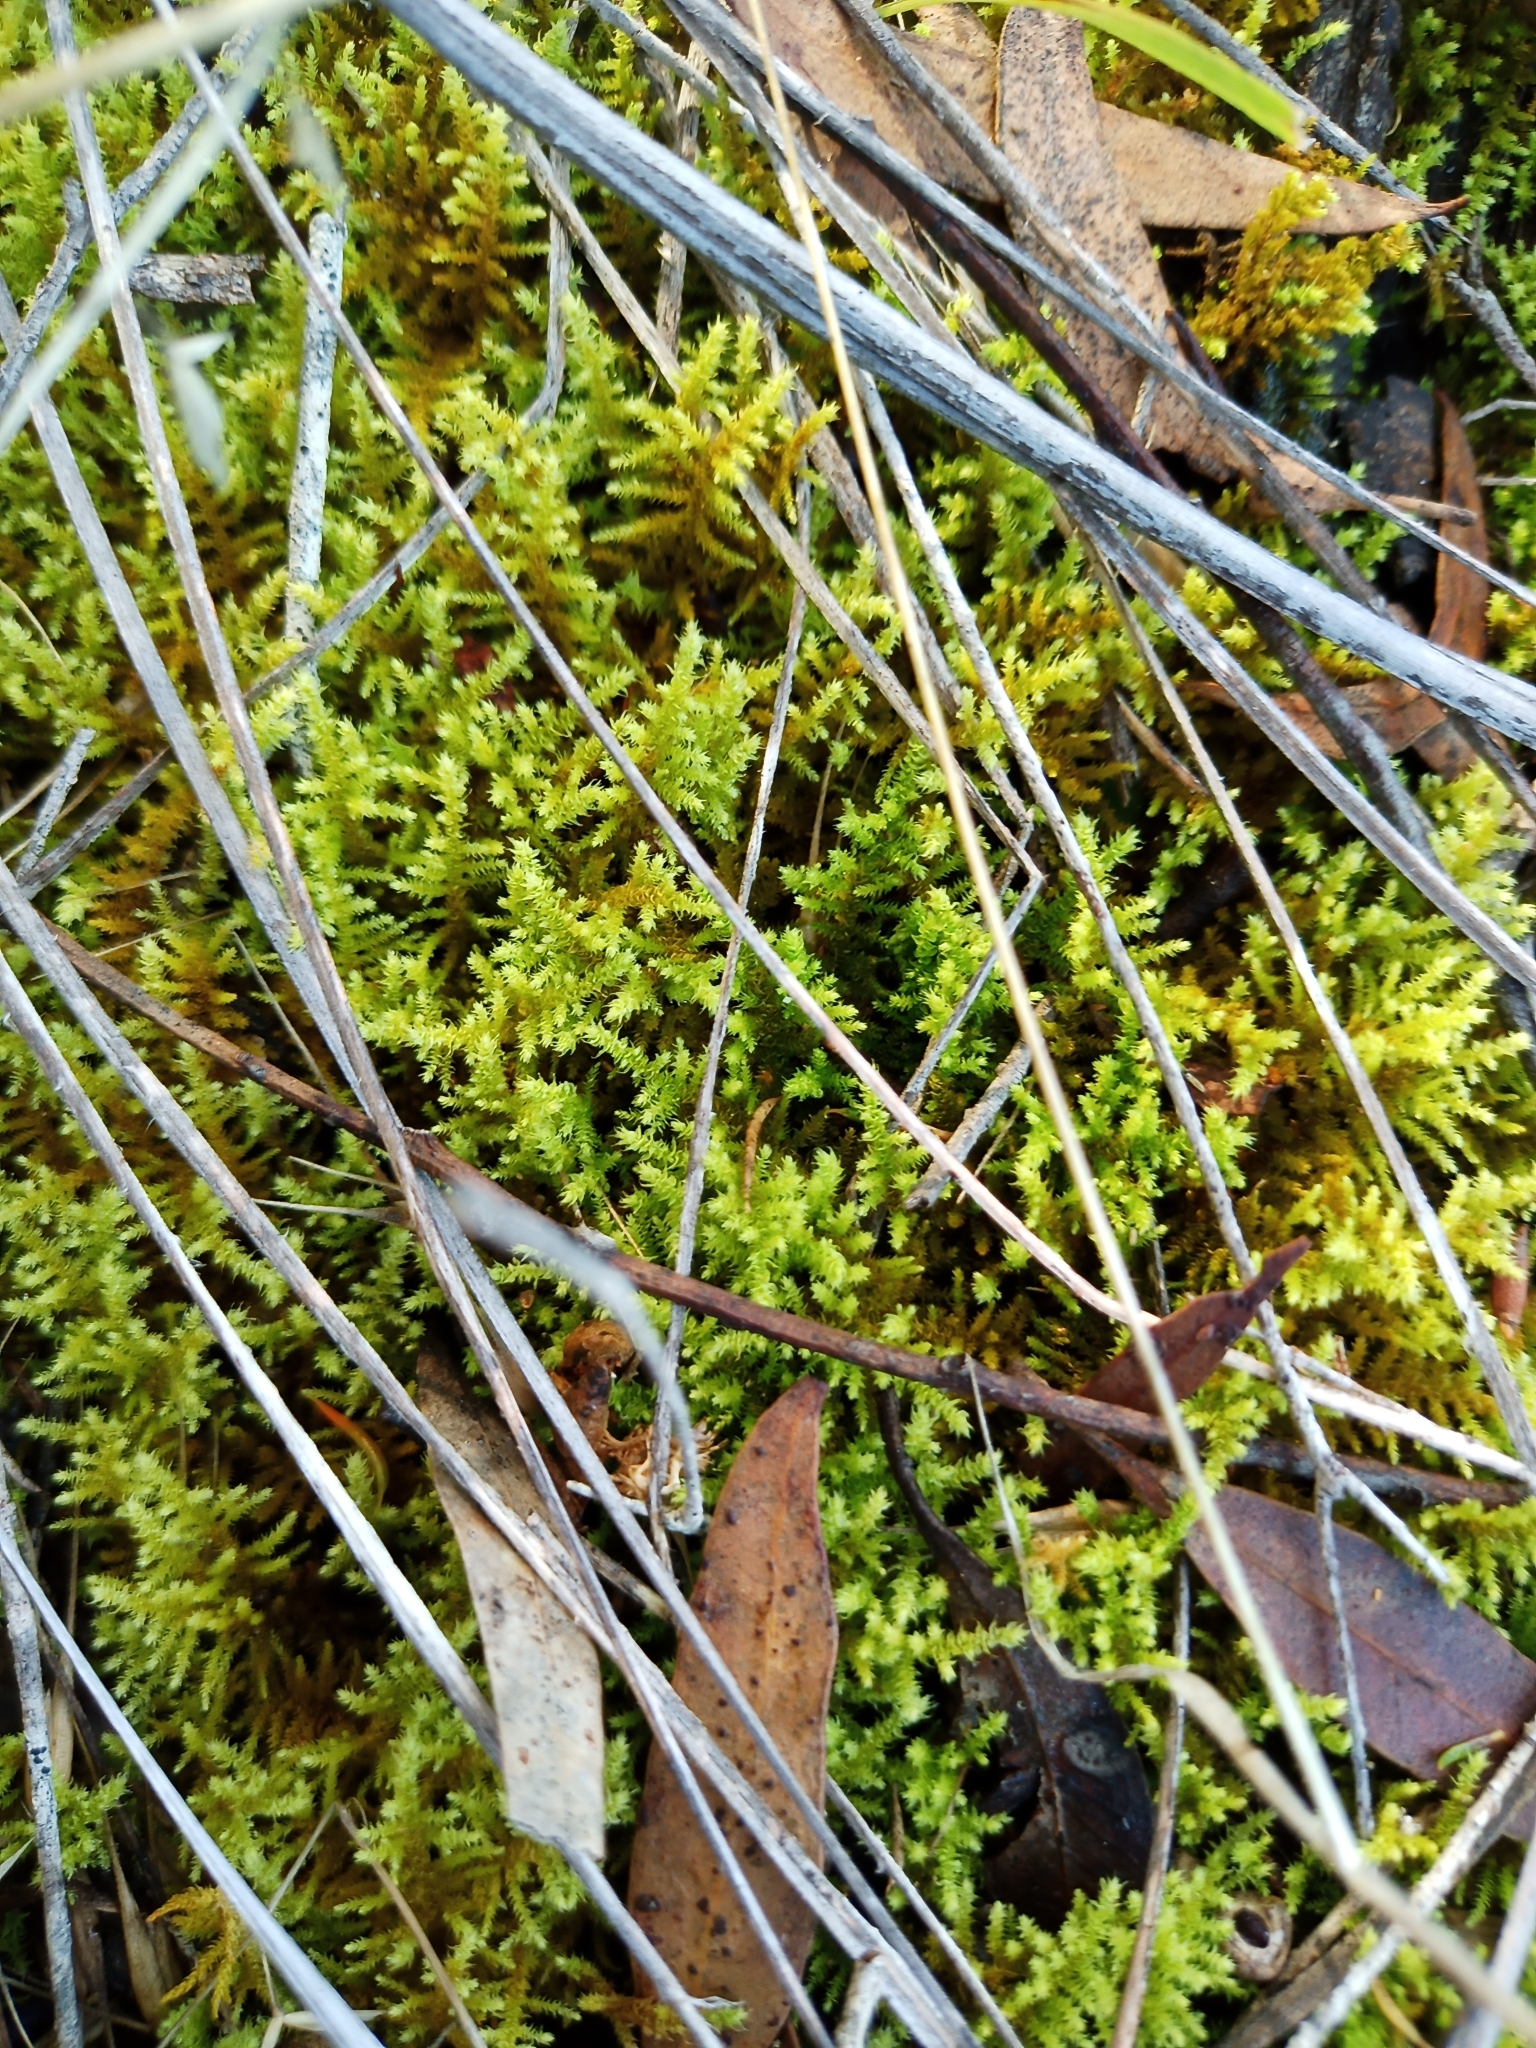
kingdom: Plantae
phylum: Bryophyta
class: Bryopsida
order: Hypnales
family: Thuidiaceae
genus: Thuidiopsis
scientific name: Thuidiopsis sparsa
